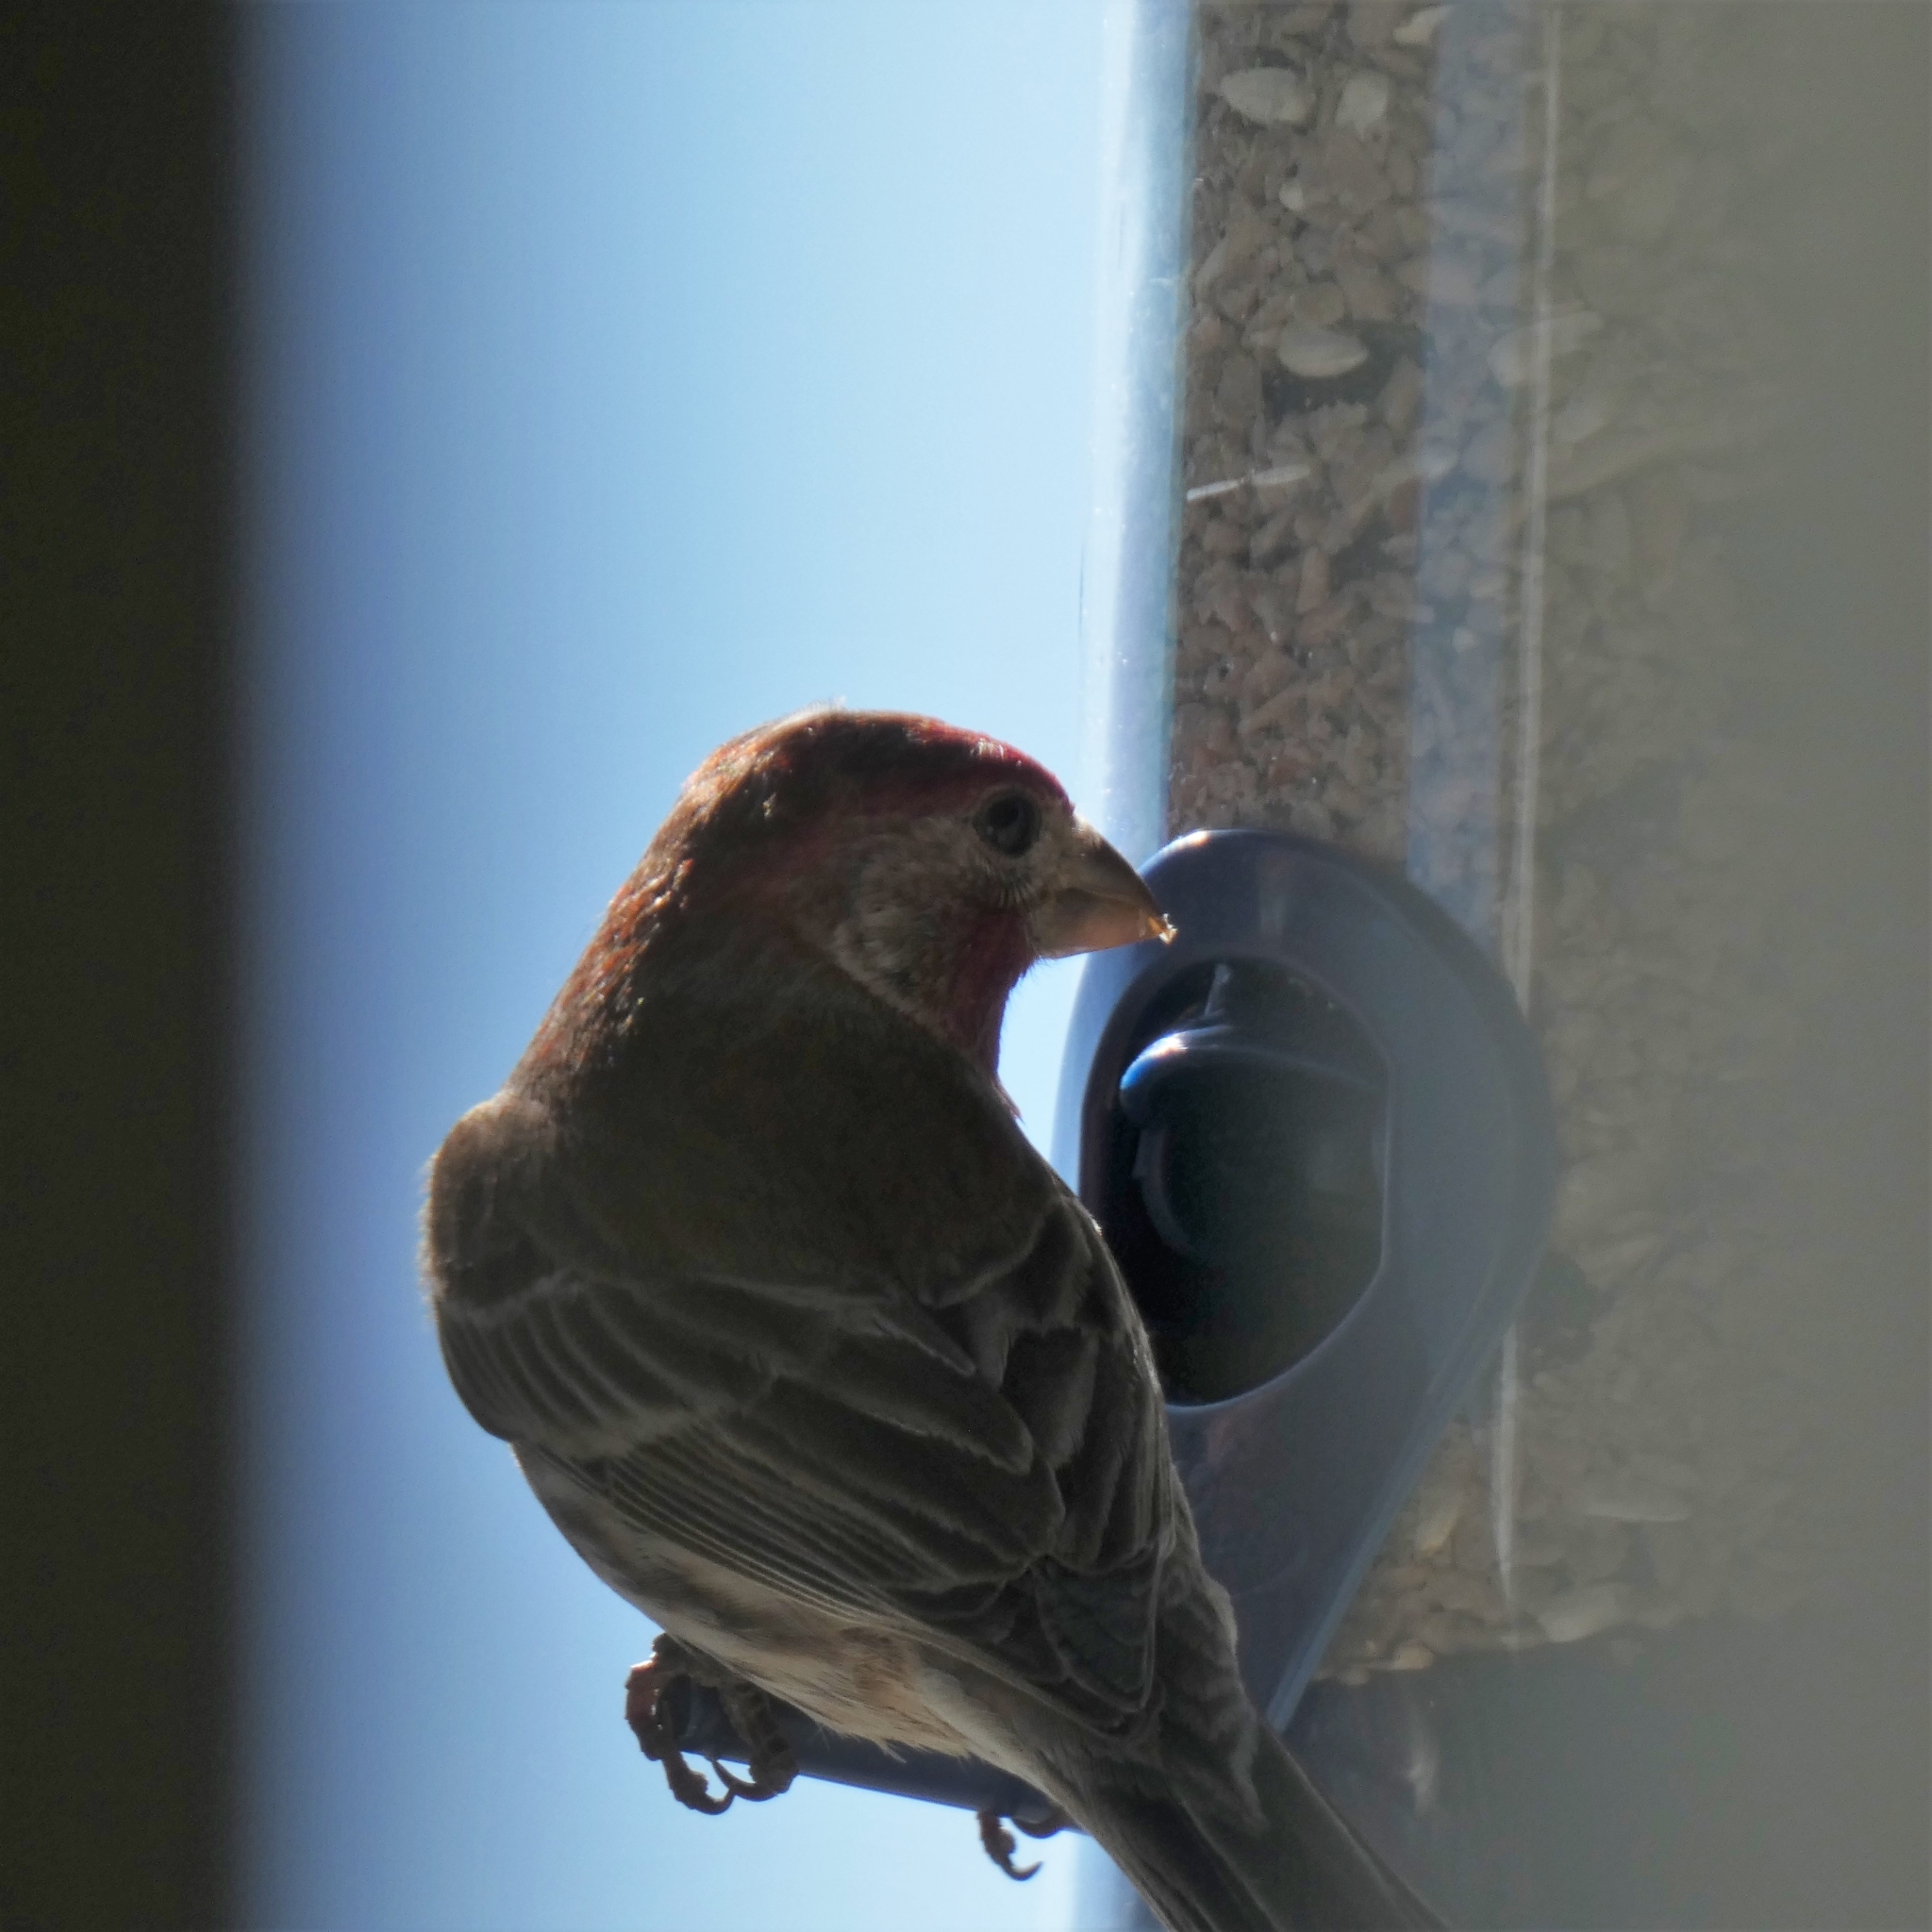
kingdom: Animalia
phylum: Chordata
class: Aves
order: Passeriformes
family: Fringillidae
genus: Haemorhous
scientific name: Haemorhous mexicanus
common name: House finch
